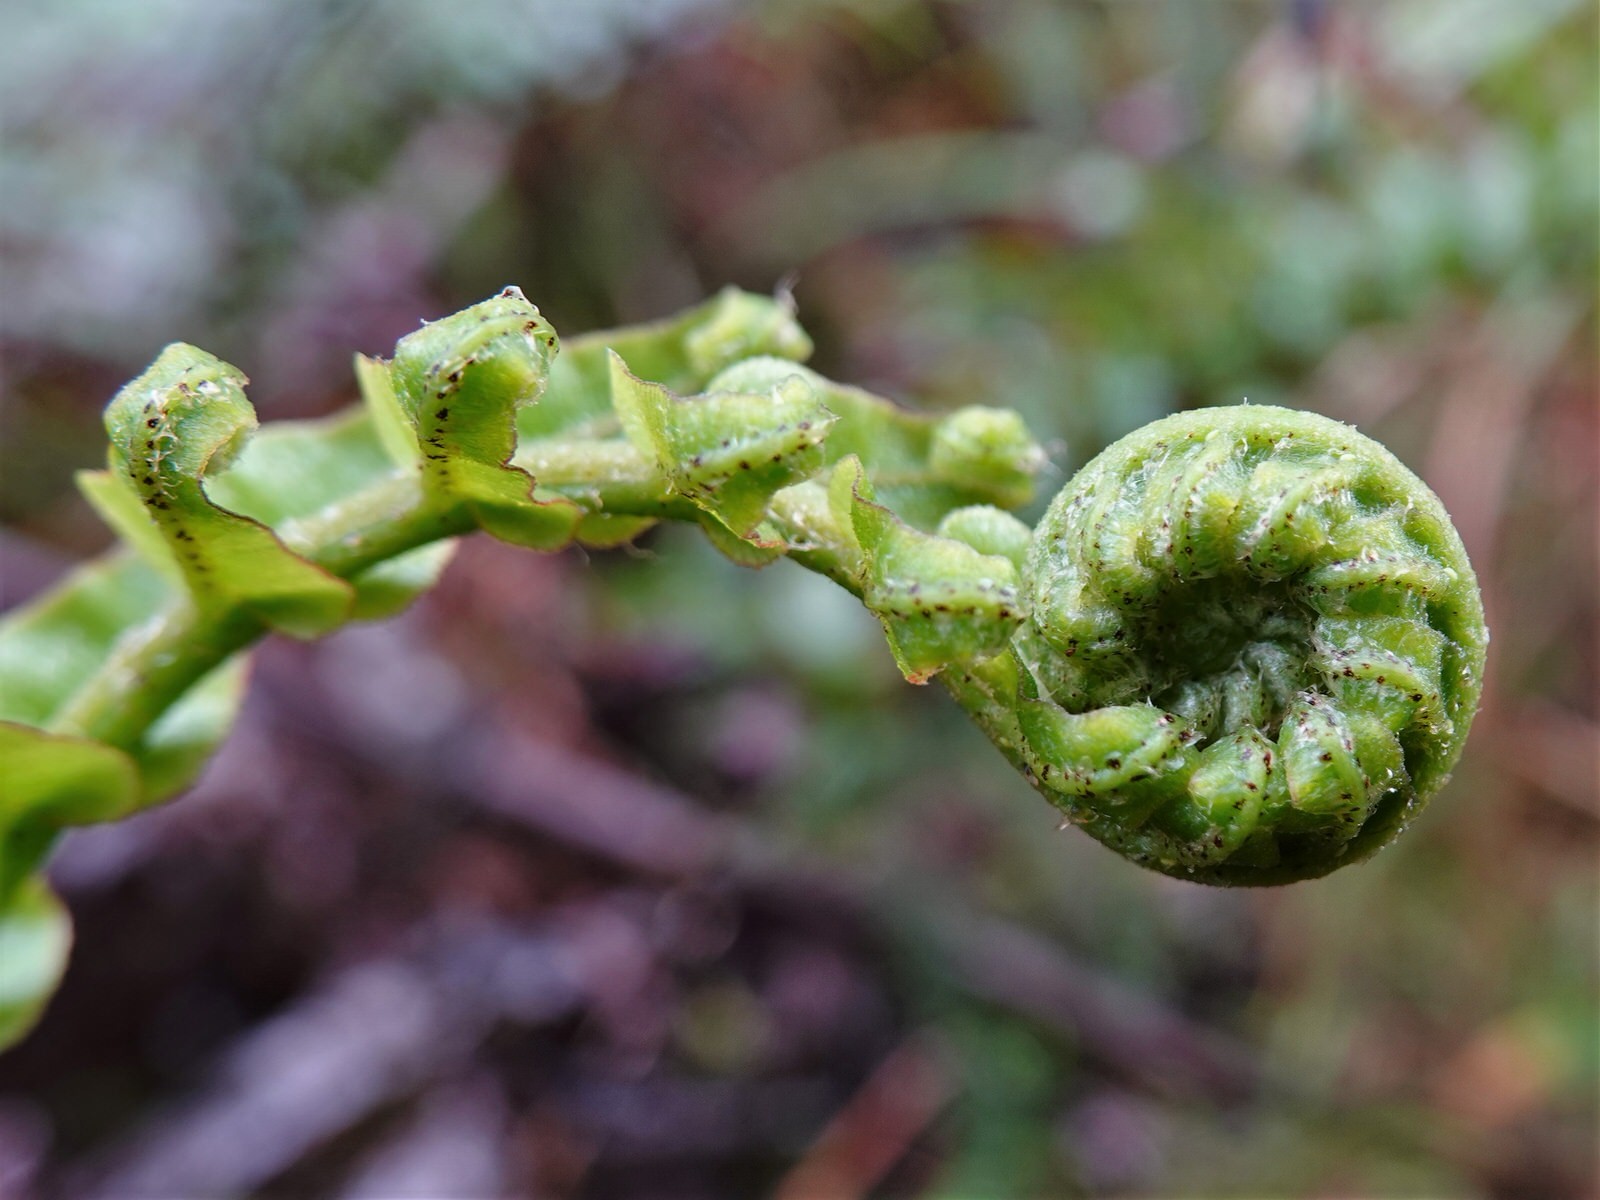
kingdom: Plantae
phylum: Tracheophyta
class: Polypodiopsida
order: Polypodiales
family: Blechnaceae
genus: Parablechnum
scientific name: Parablechnum novae-zelandiae
